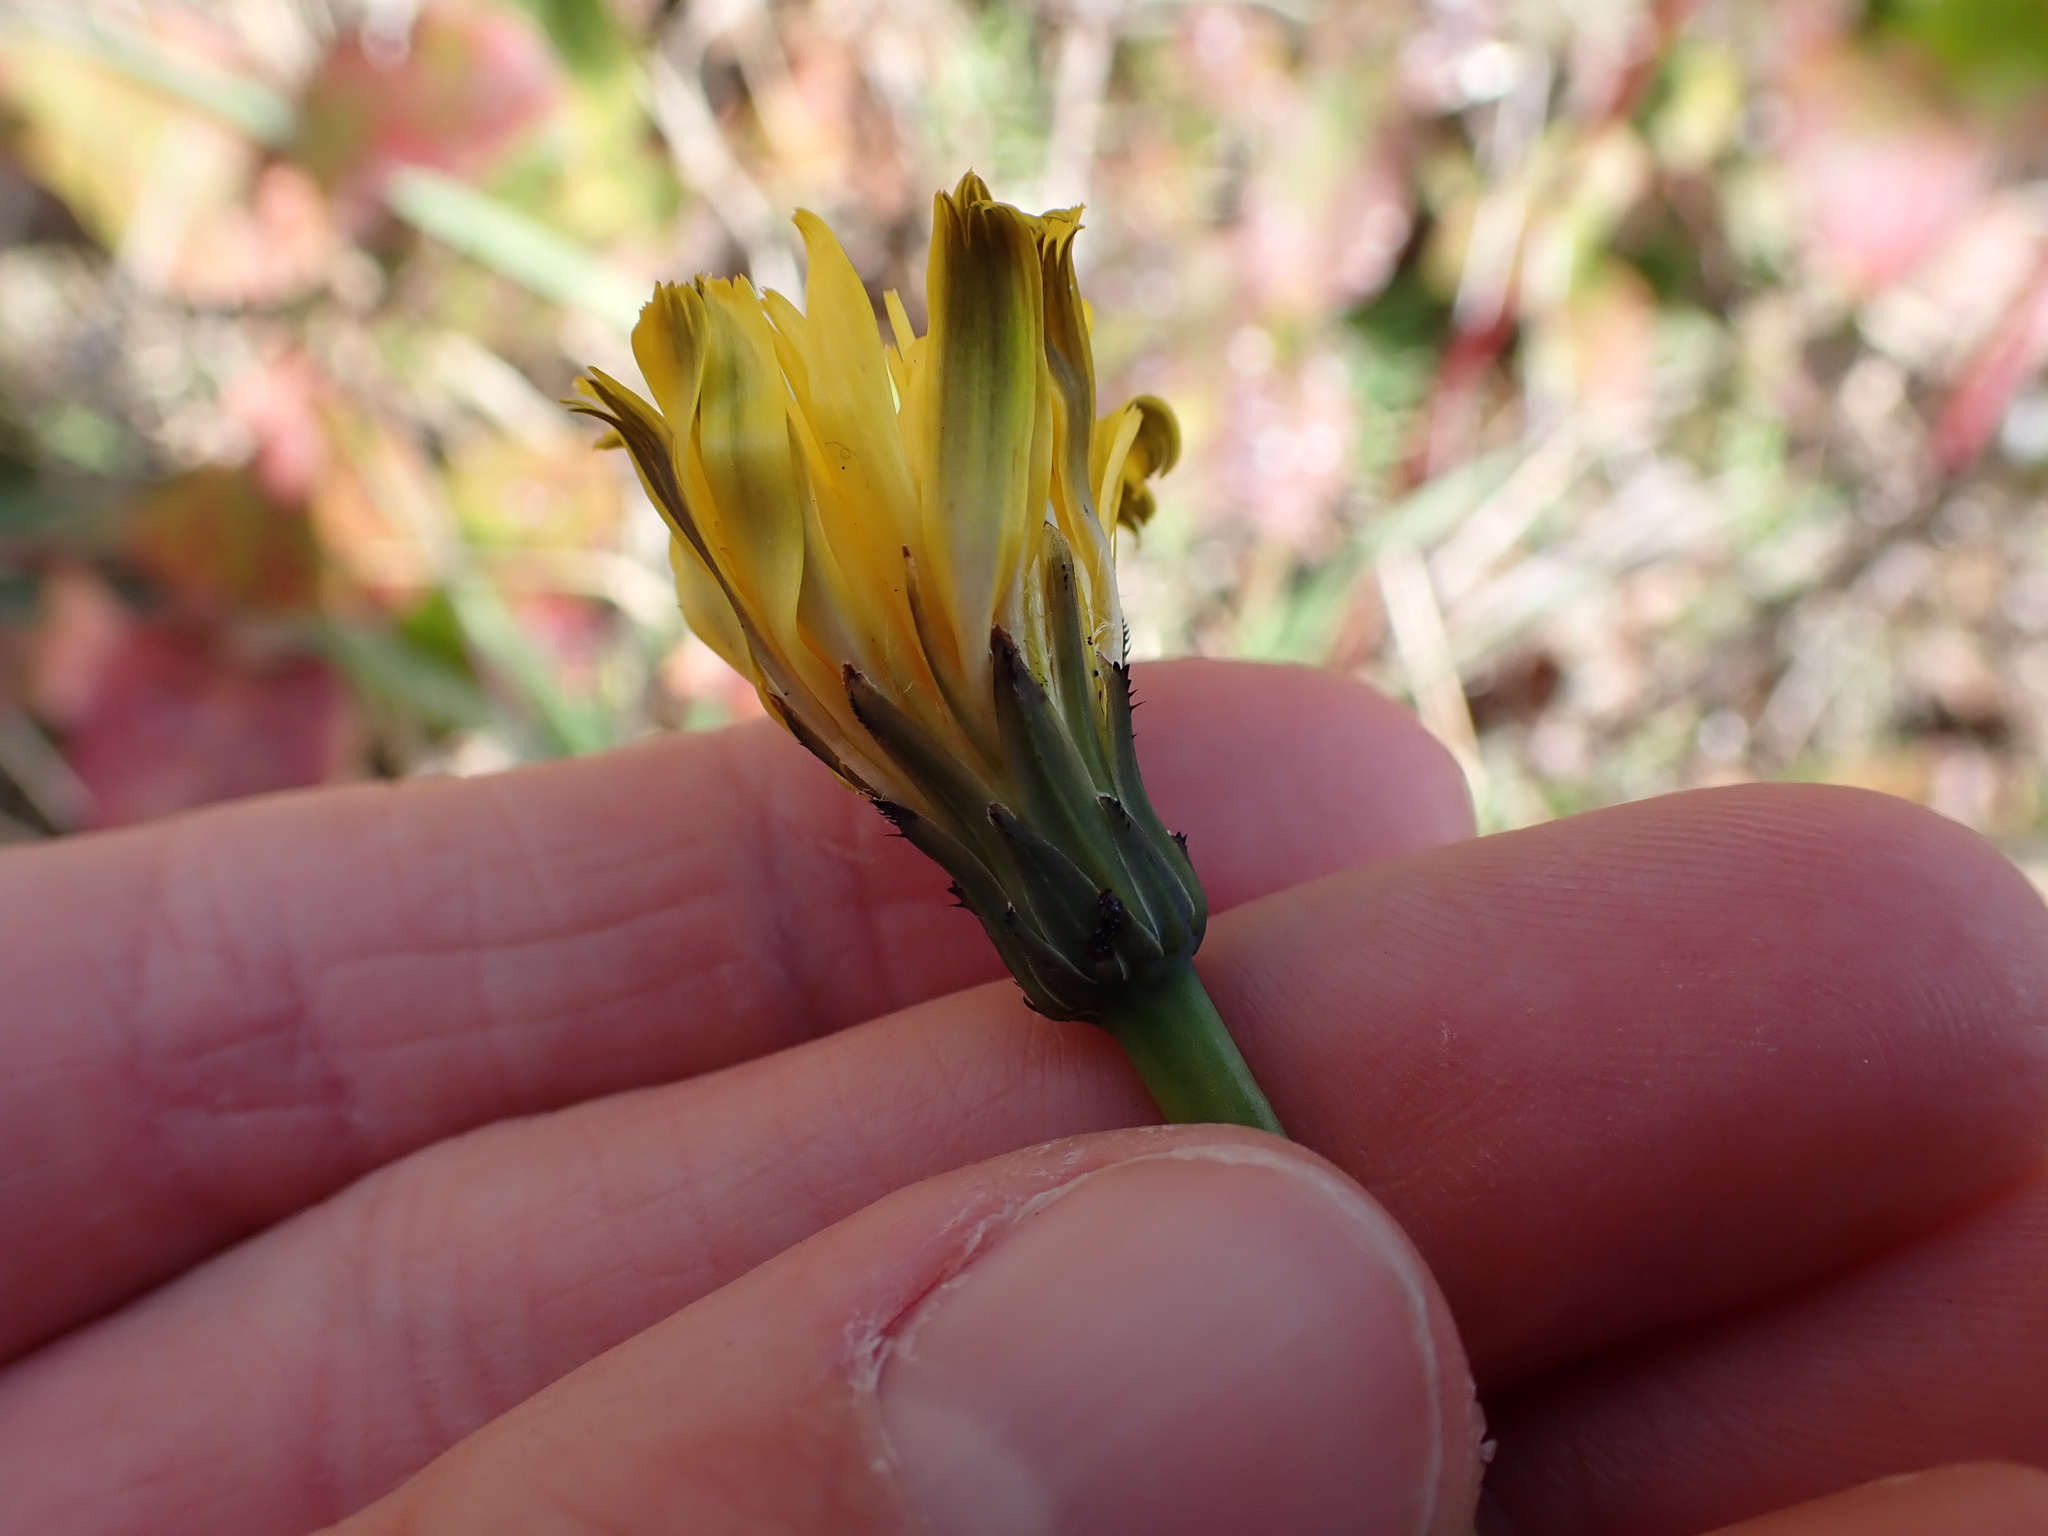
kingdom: Plantae
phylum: Tracheophyta
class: Magnoliopsida
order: Asterales
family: Asteraceae
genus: Hypochaeris
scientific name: Hypochaeris radicata
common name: Flatweed
